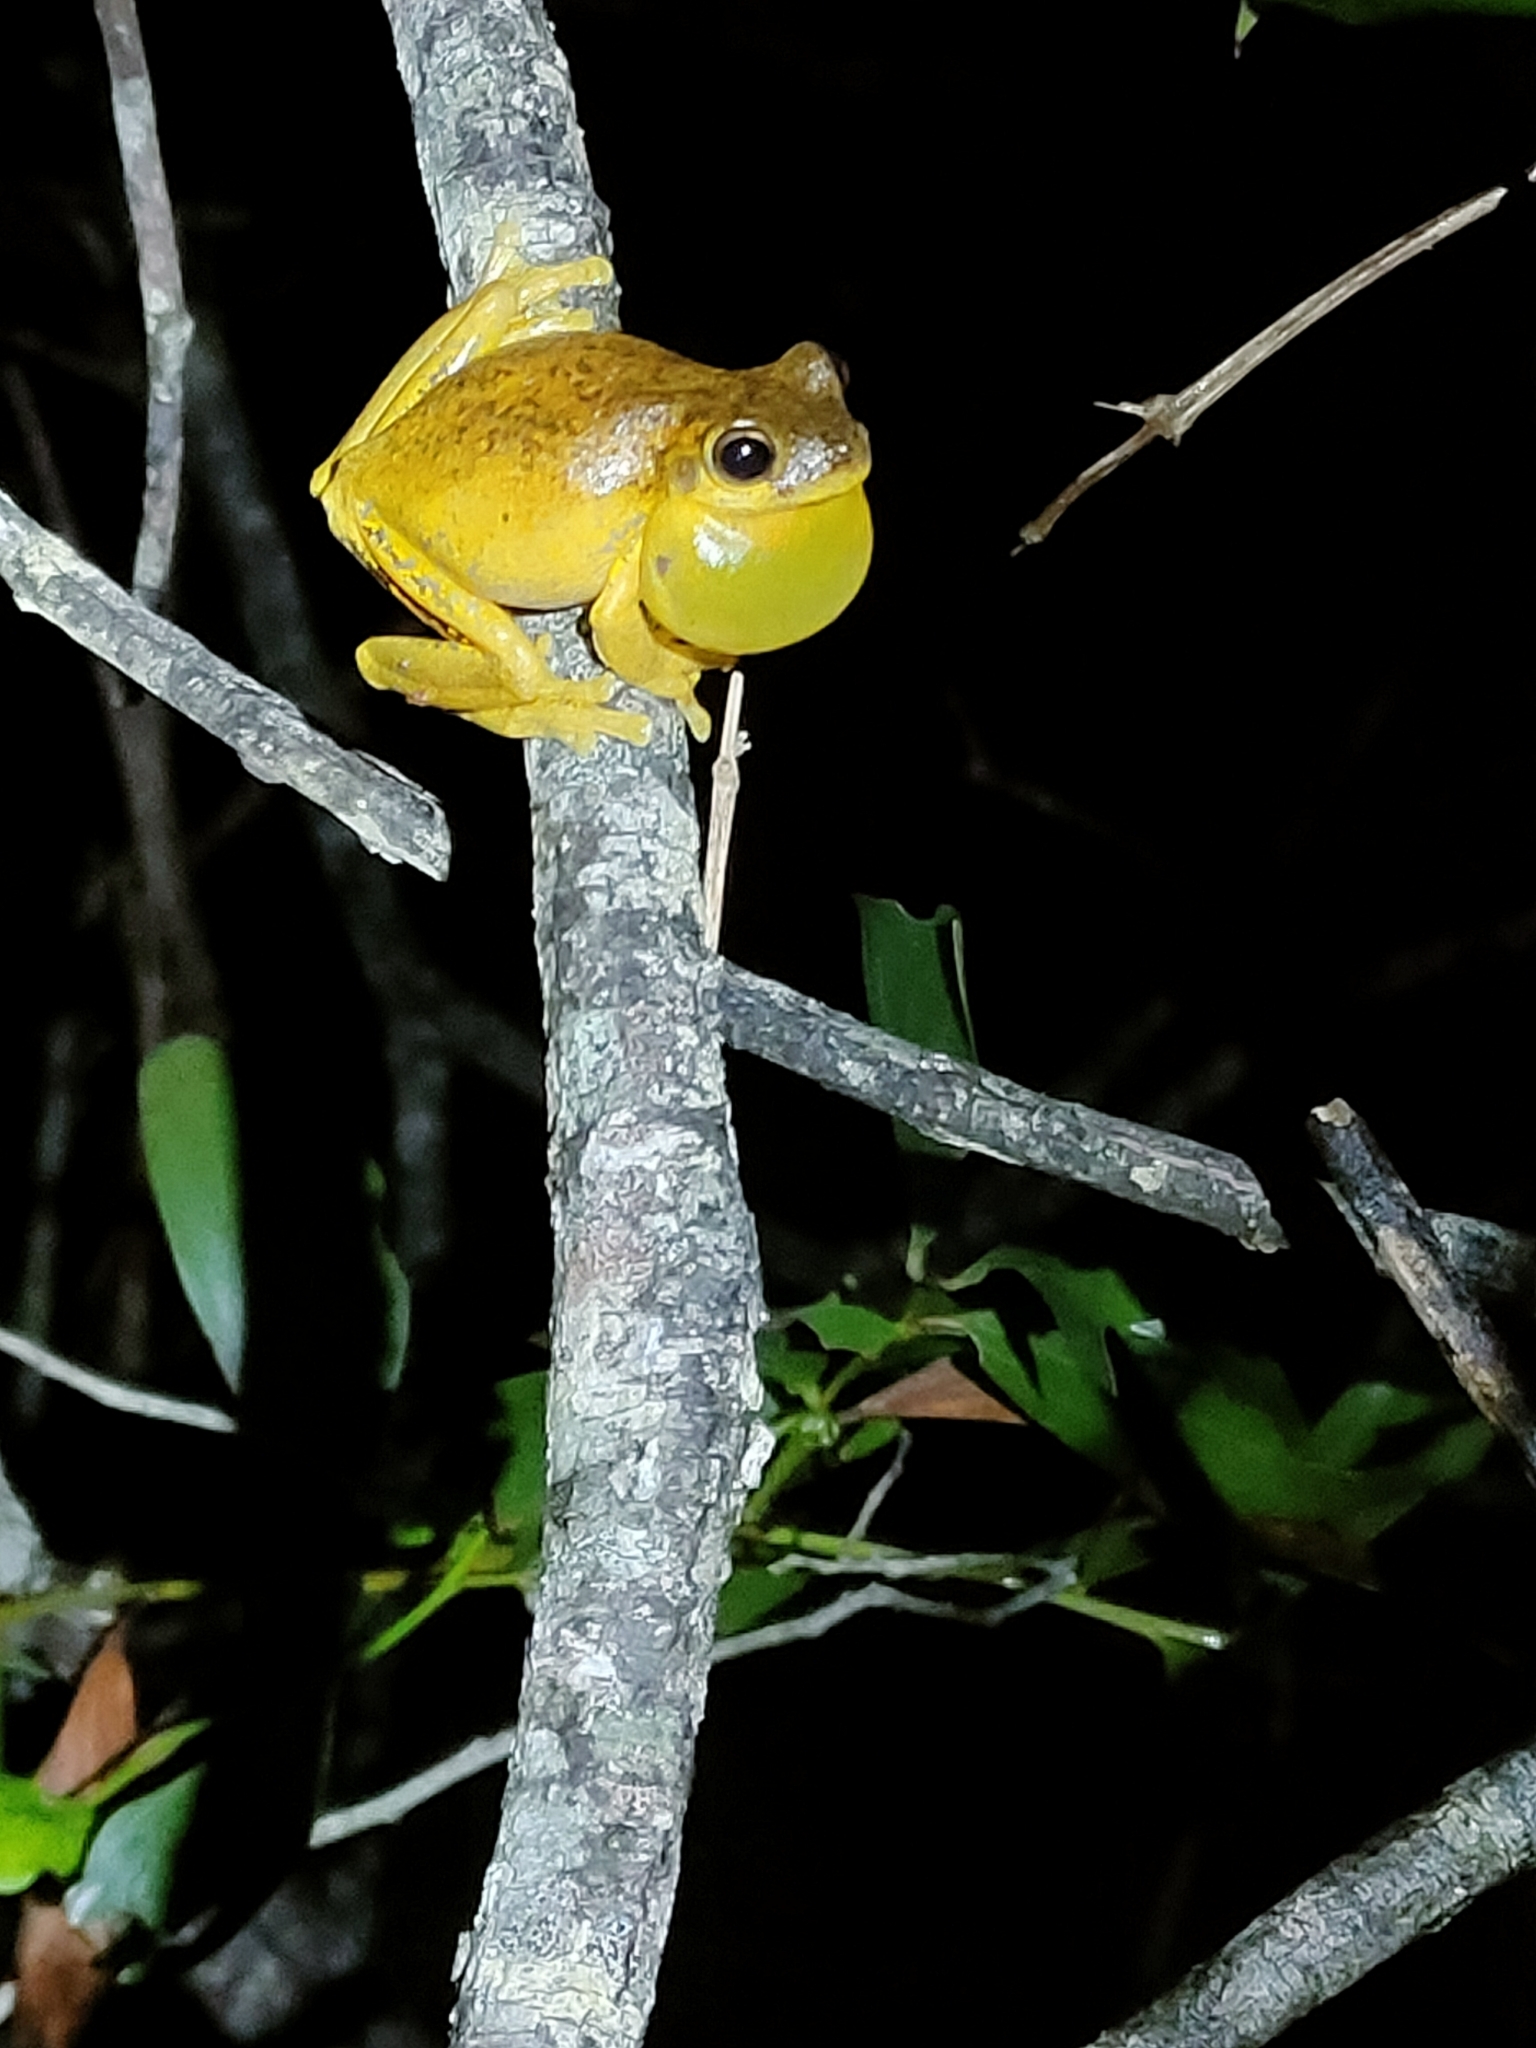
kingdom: Animalia
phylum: Chordata
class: Amphibia
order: Anura
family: Pelodryadidae
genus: Litoria
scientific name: Litoria tyleri
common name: Laughing tree frog
